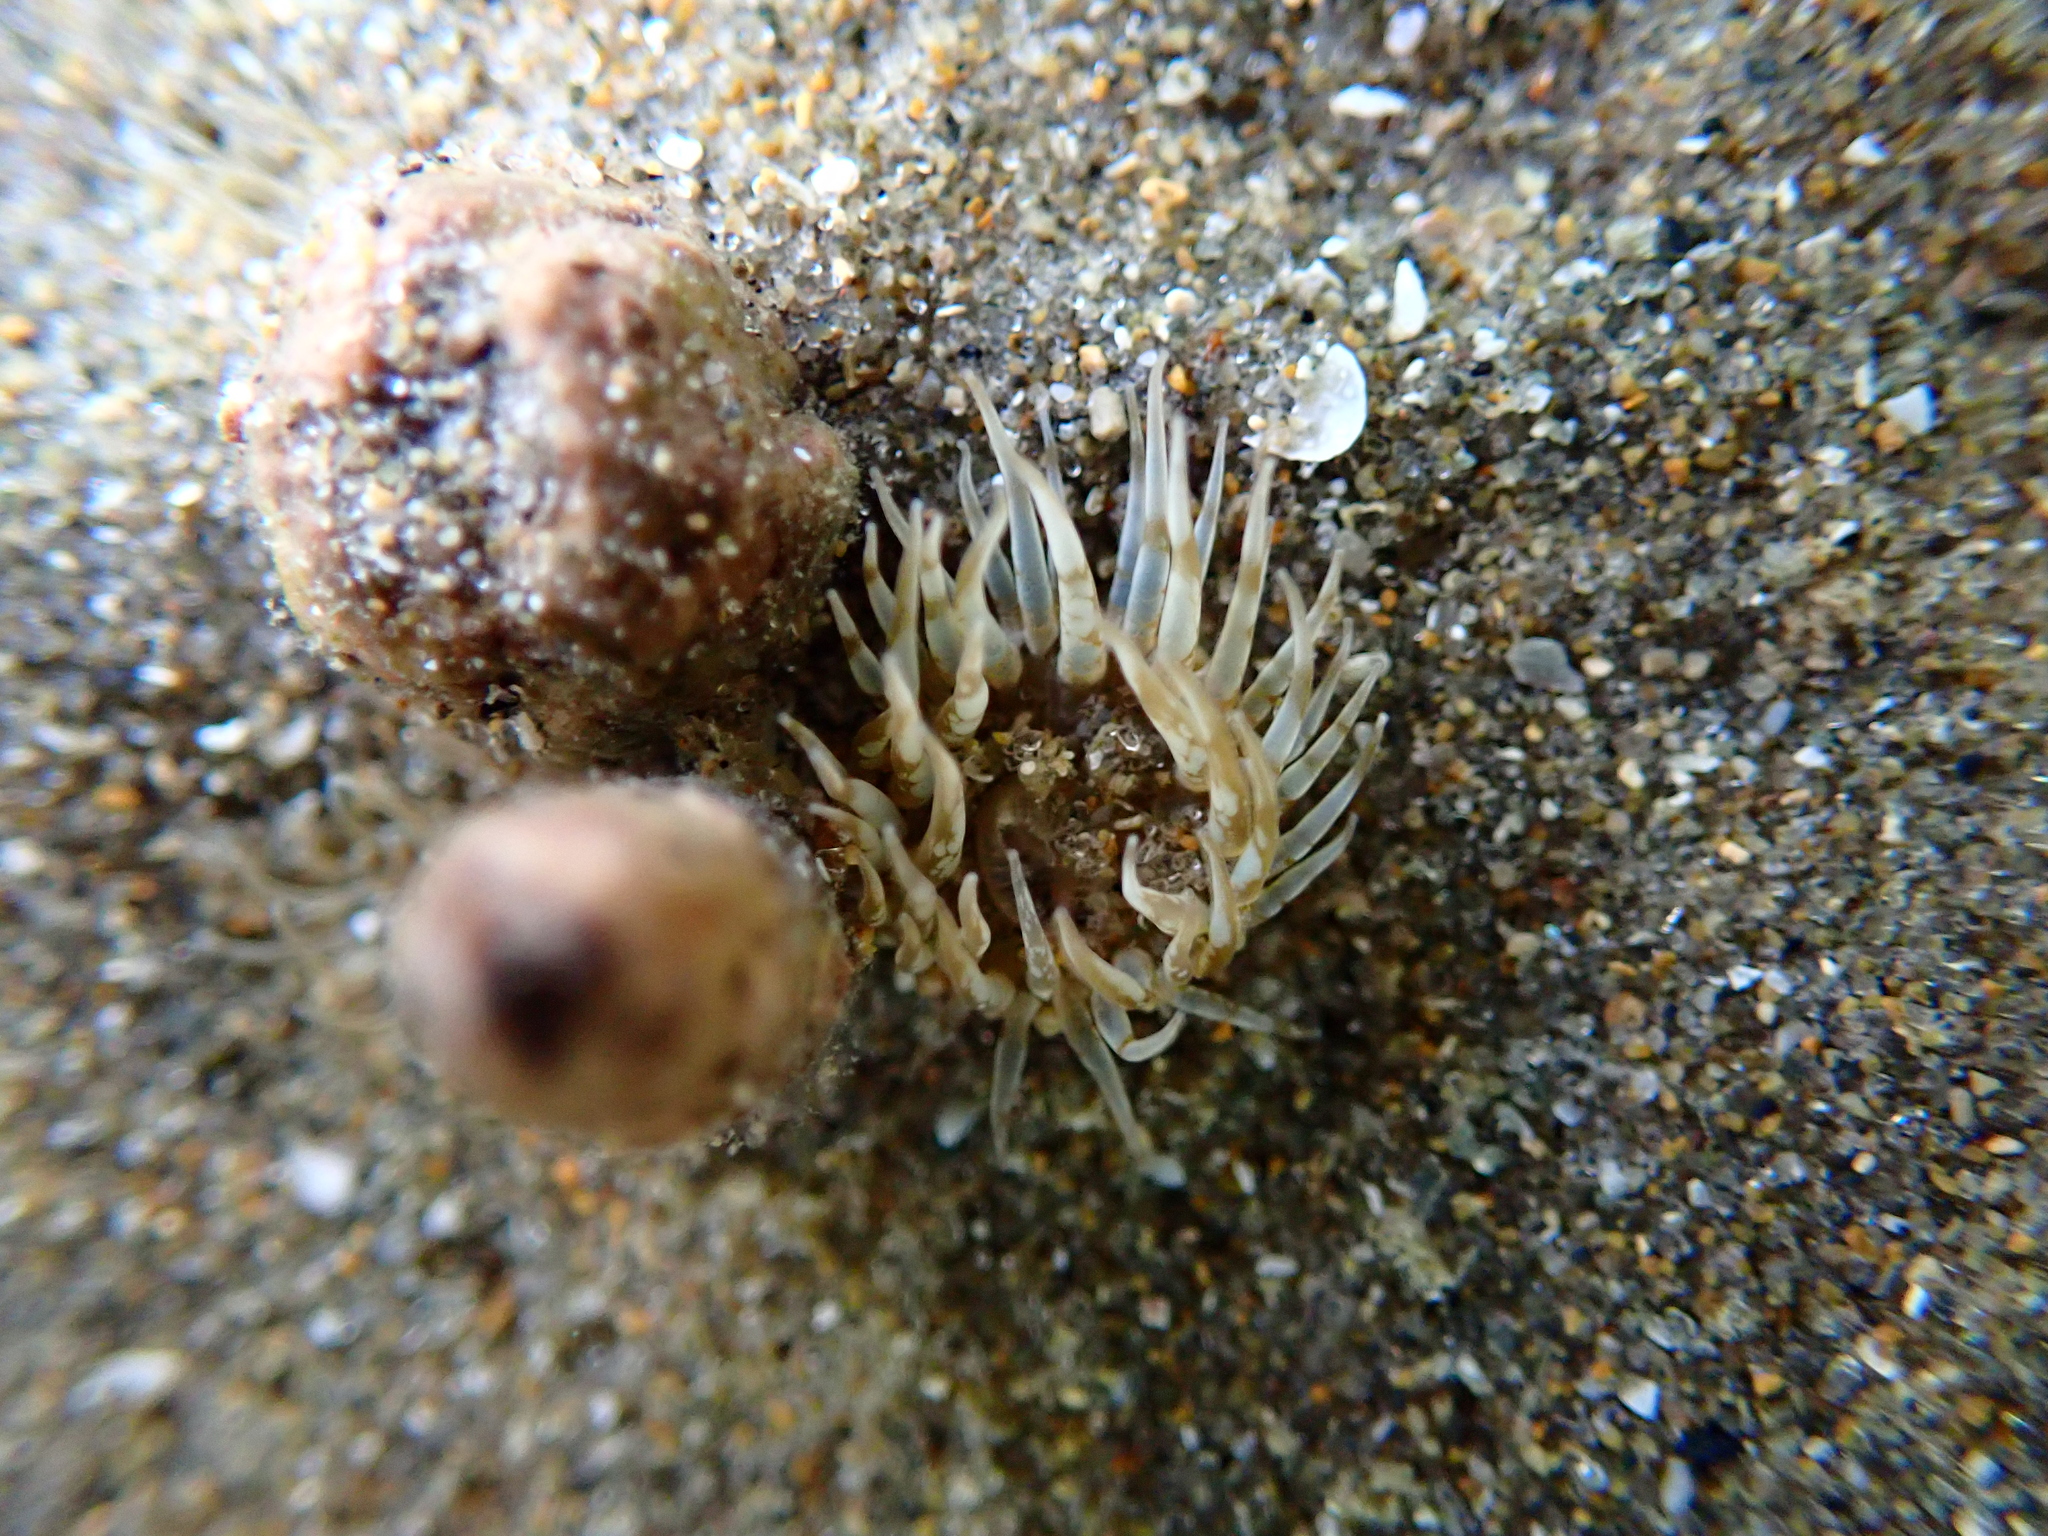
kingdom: Animalia
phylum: Cnidaria
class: Anthozoa
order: Actiniaria
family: Actiniidae
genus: Anthopleura
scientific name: Anthopleura hermaphroditica
